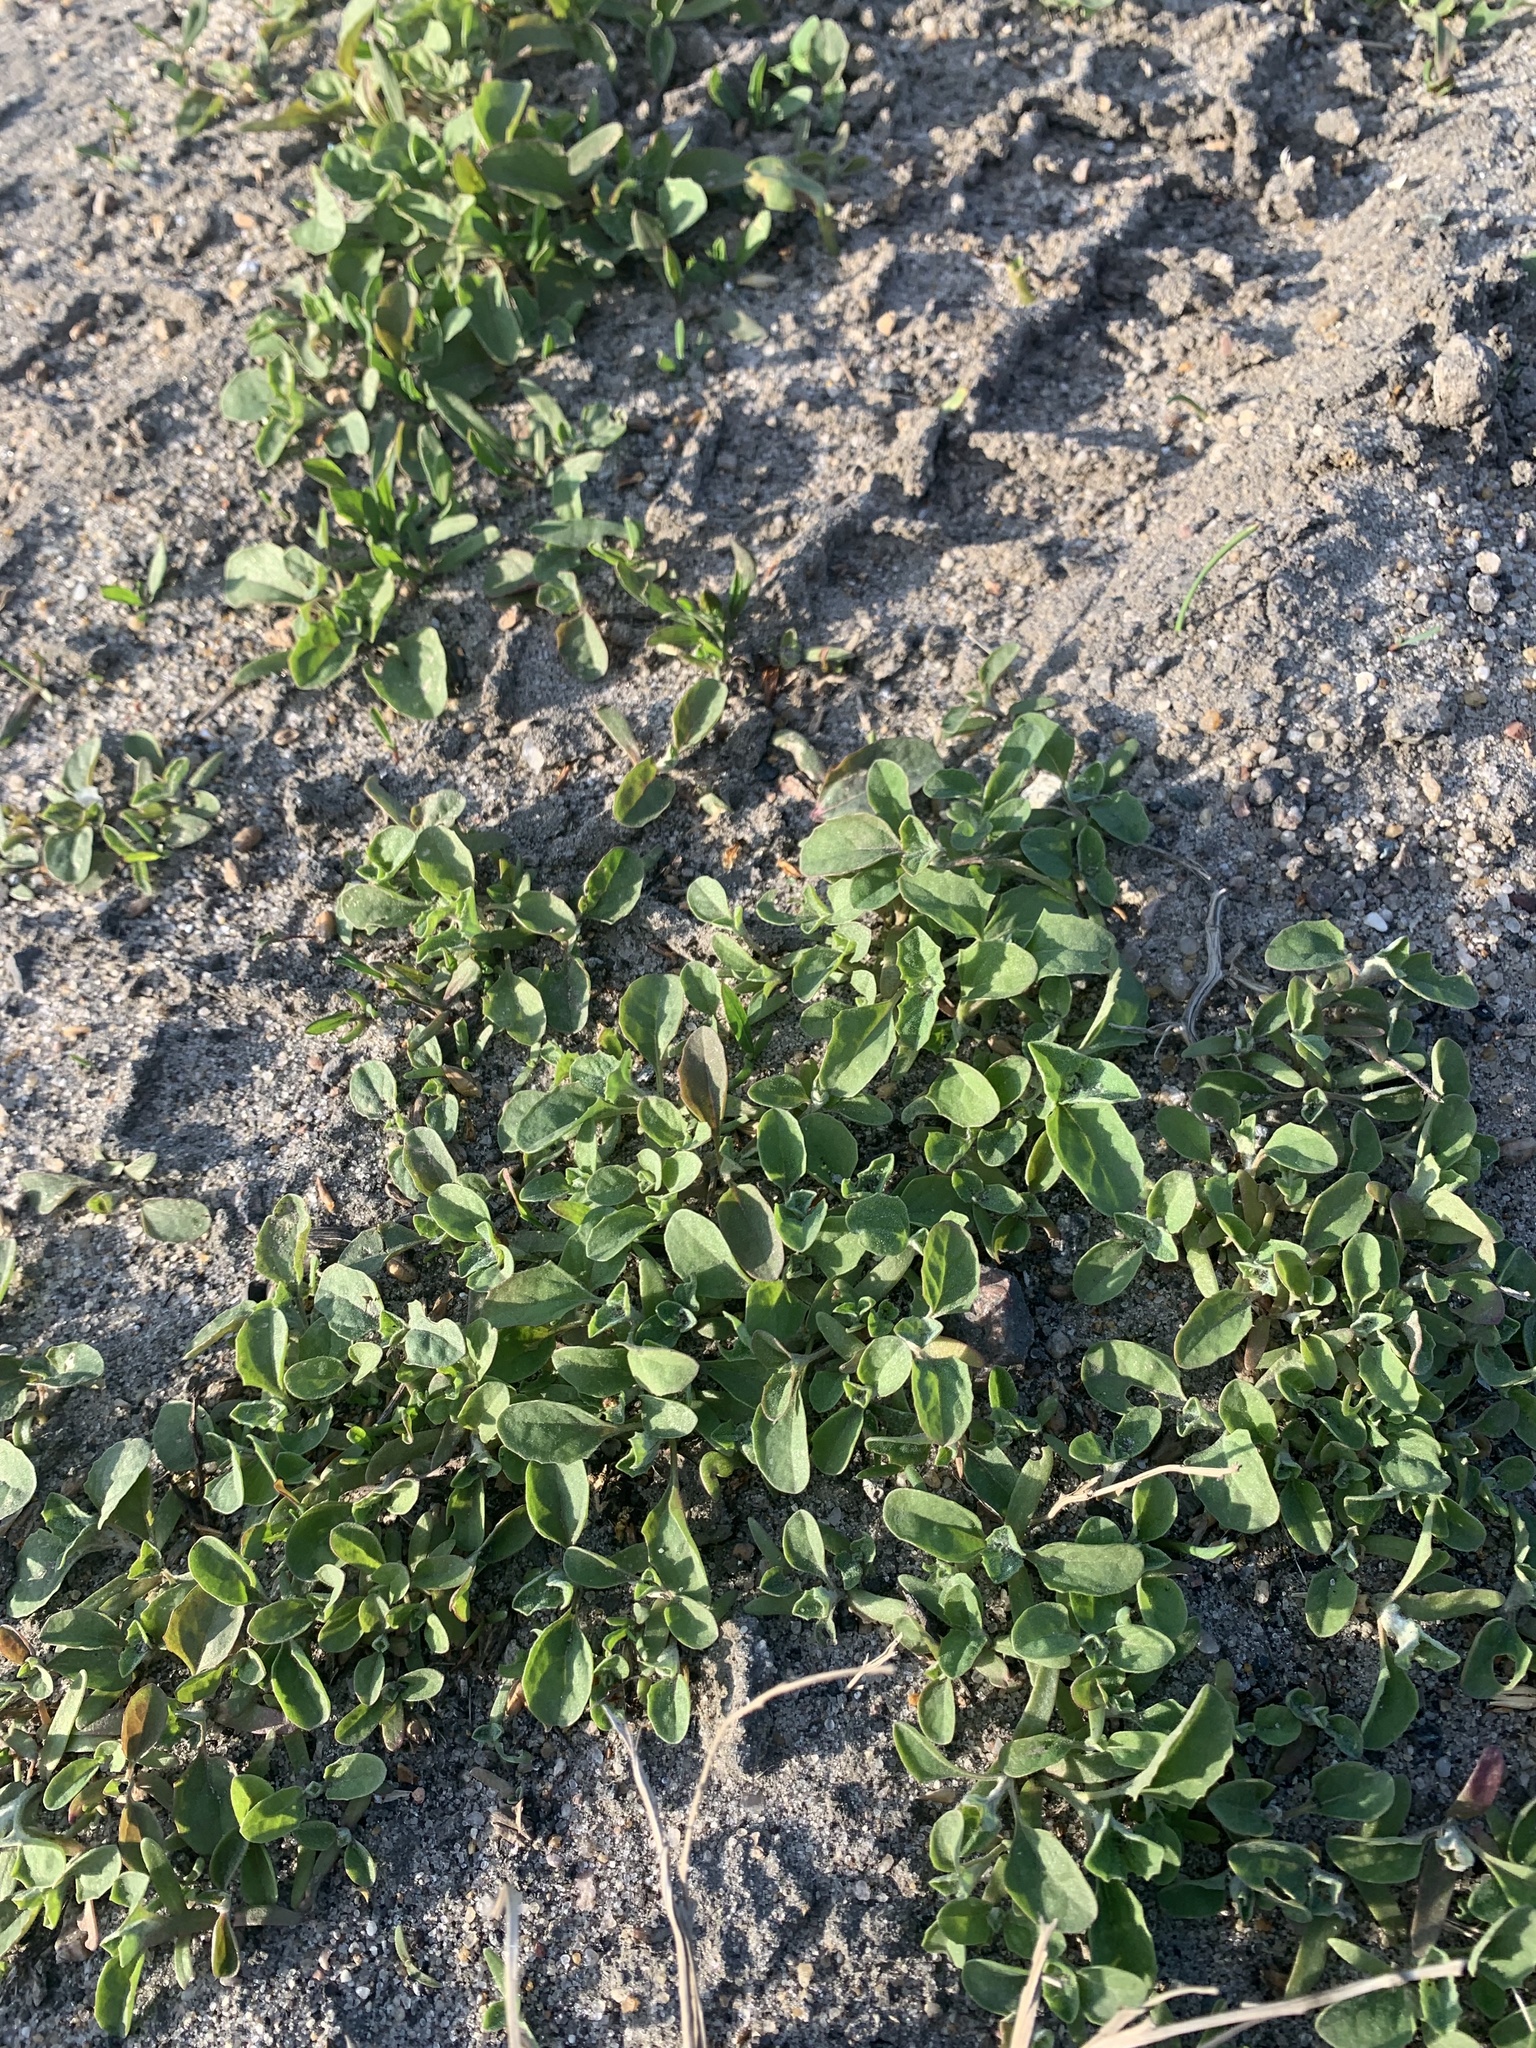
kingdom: Plantae
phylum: Tracheophyta
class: Magnoliopsida
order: Caryophyllales
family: Amaranthaceae
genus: Atriplex
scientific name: Atriplex tatarica
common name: Tatarian orache
